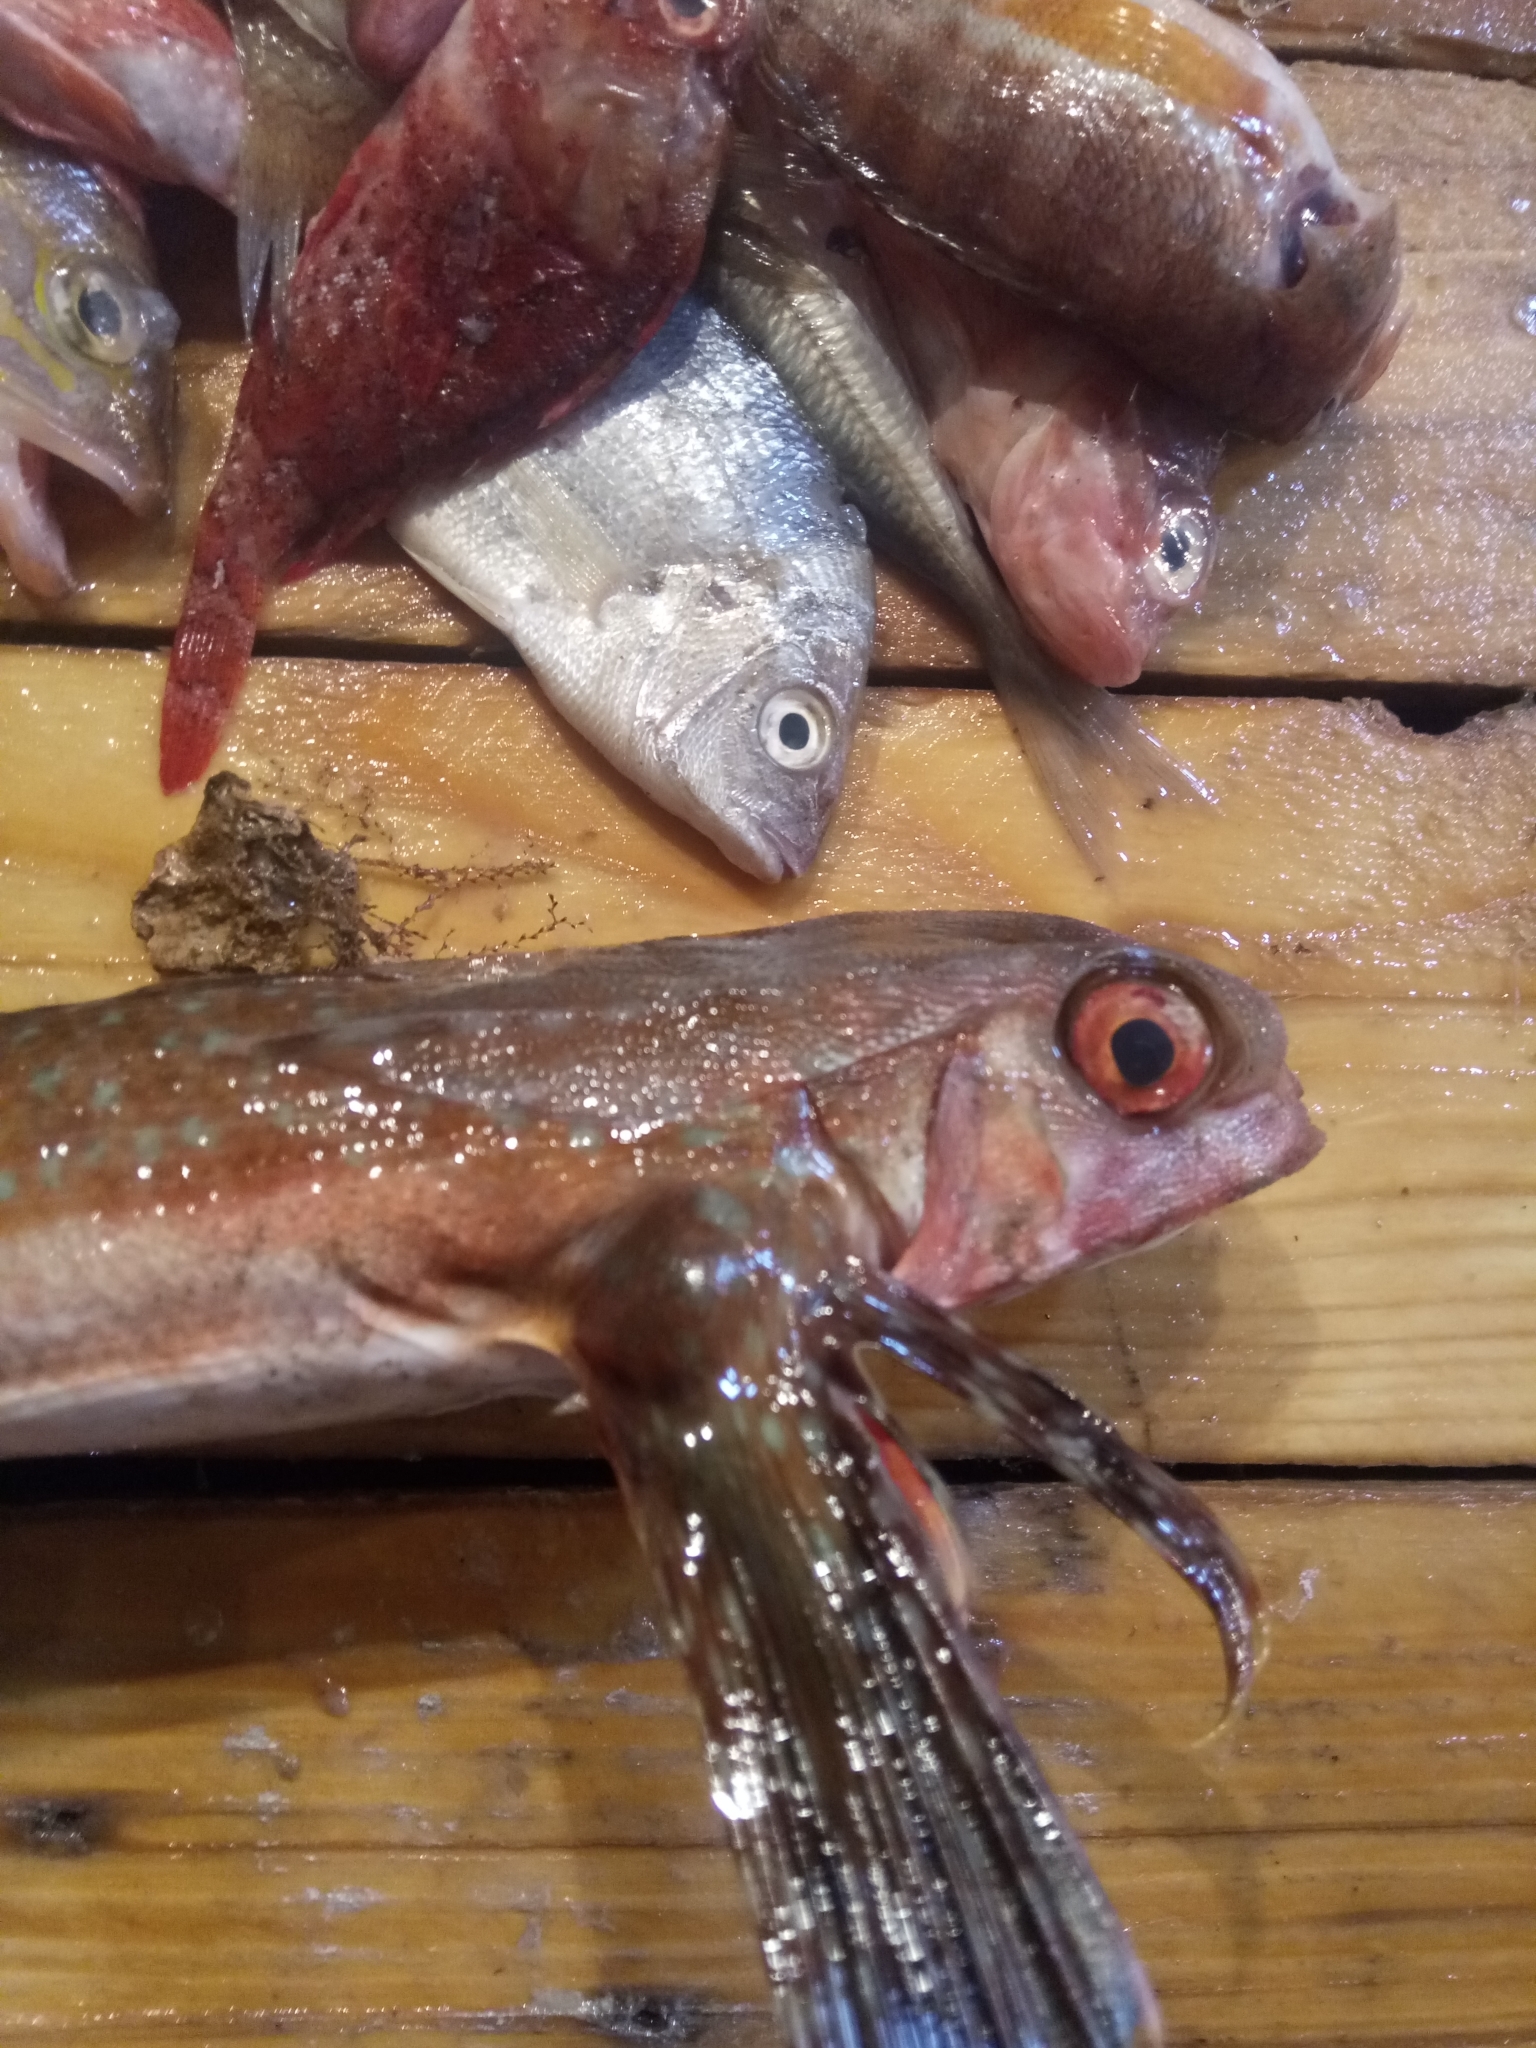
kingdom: Animalia
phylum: Chordata
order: Scorpaeniformes
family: Dactylopteridae
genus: Dactylopterus
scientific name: Dactylopterus volitans
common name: Flying gurnard
